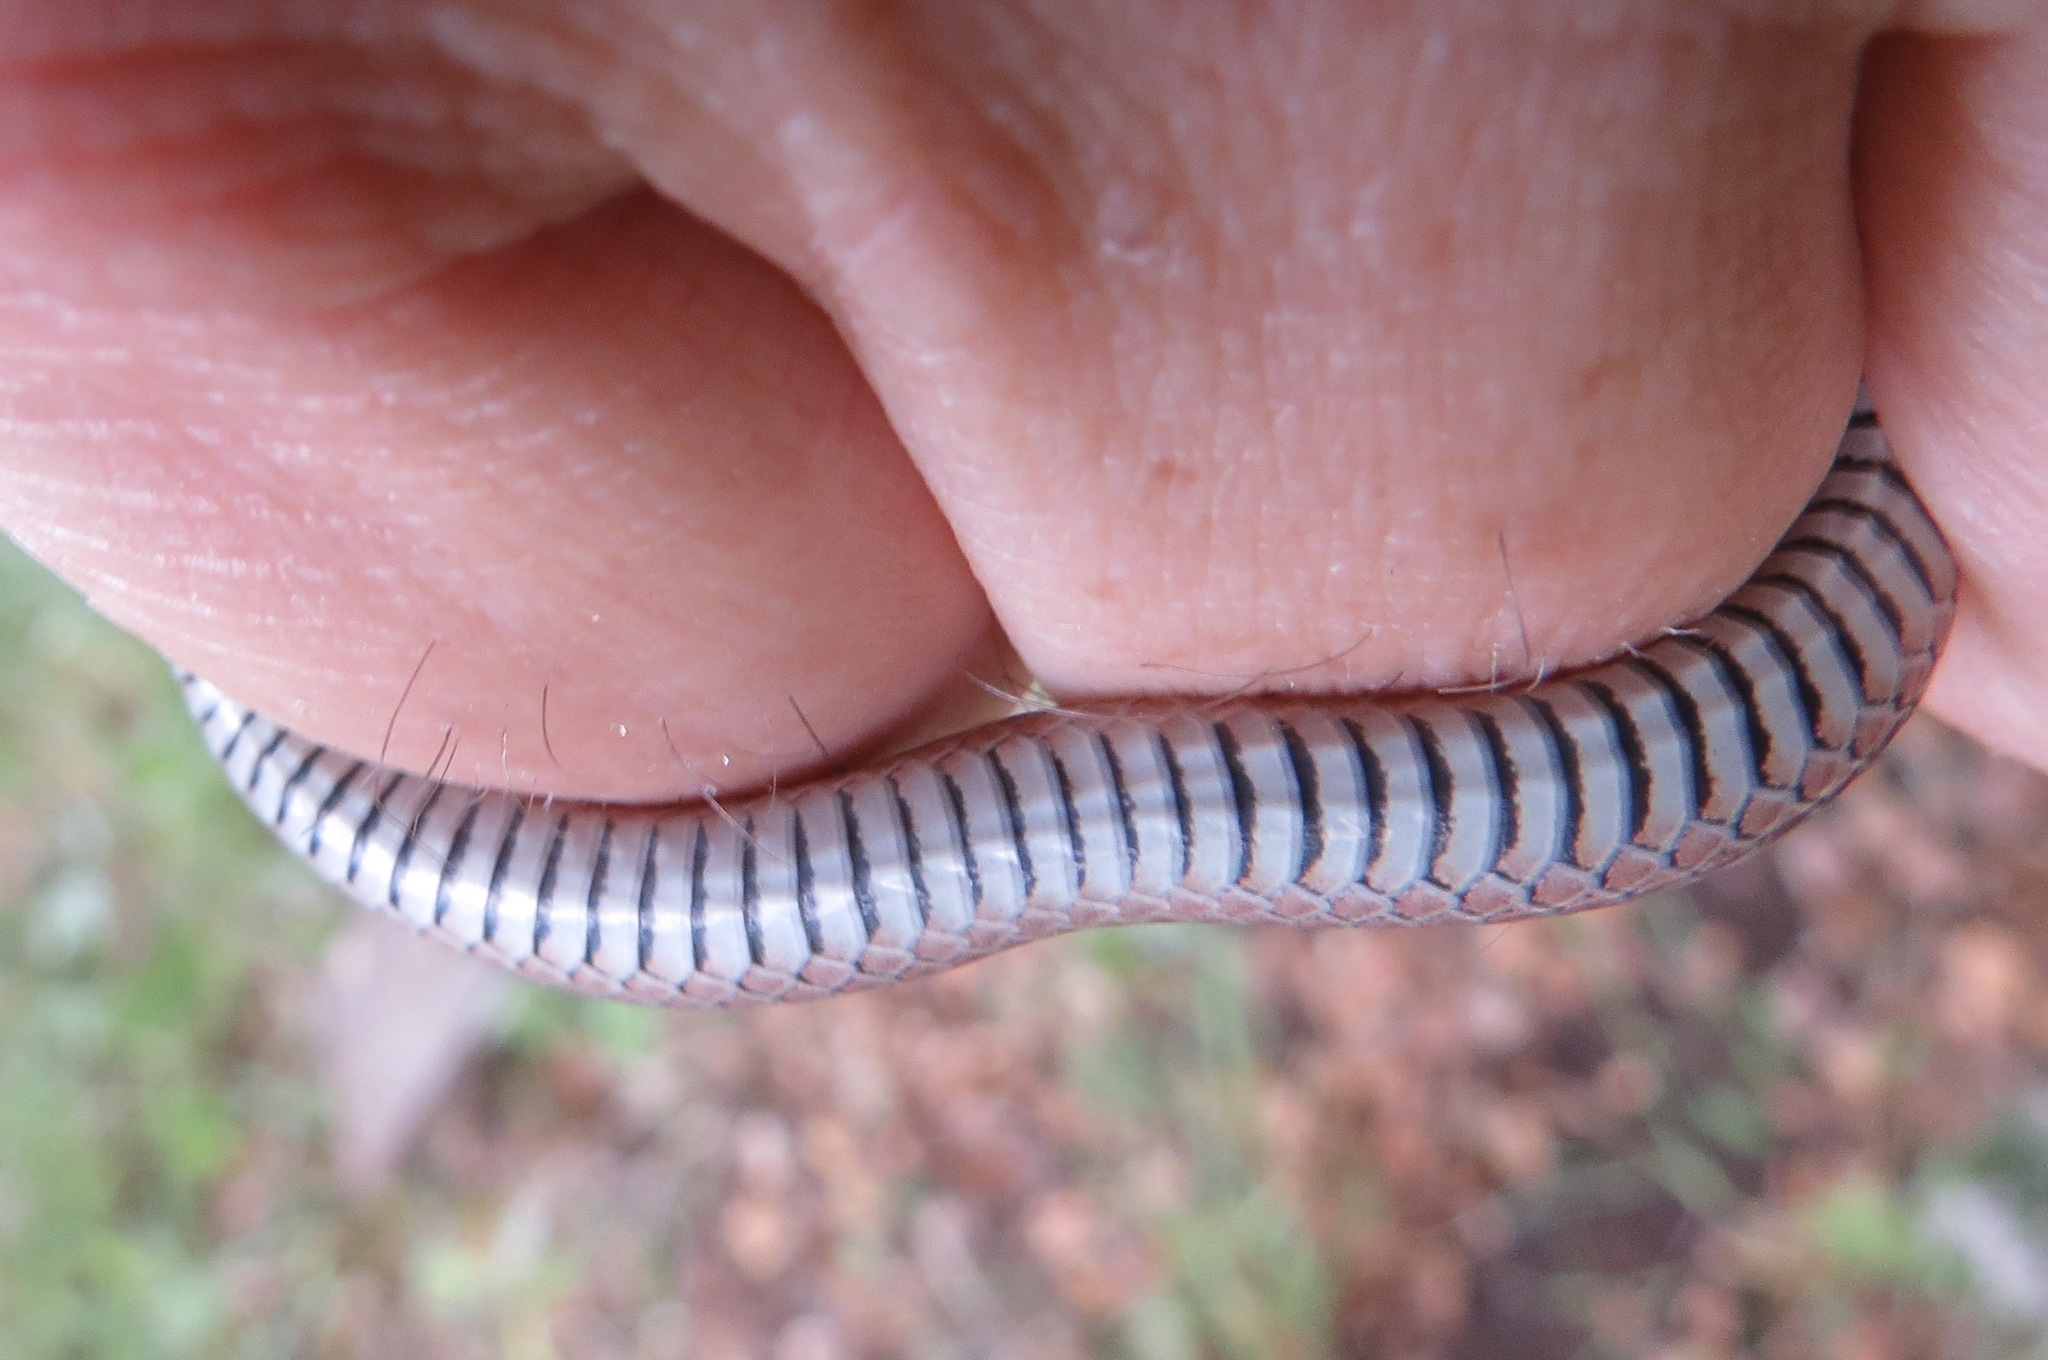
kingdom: Animalia
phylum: Chordata
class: Squamata
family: Colubridae
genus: Contia
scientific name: Contia longicaudae
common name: Forest sharp-tailed snake
